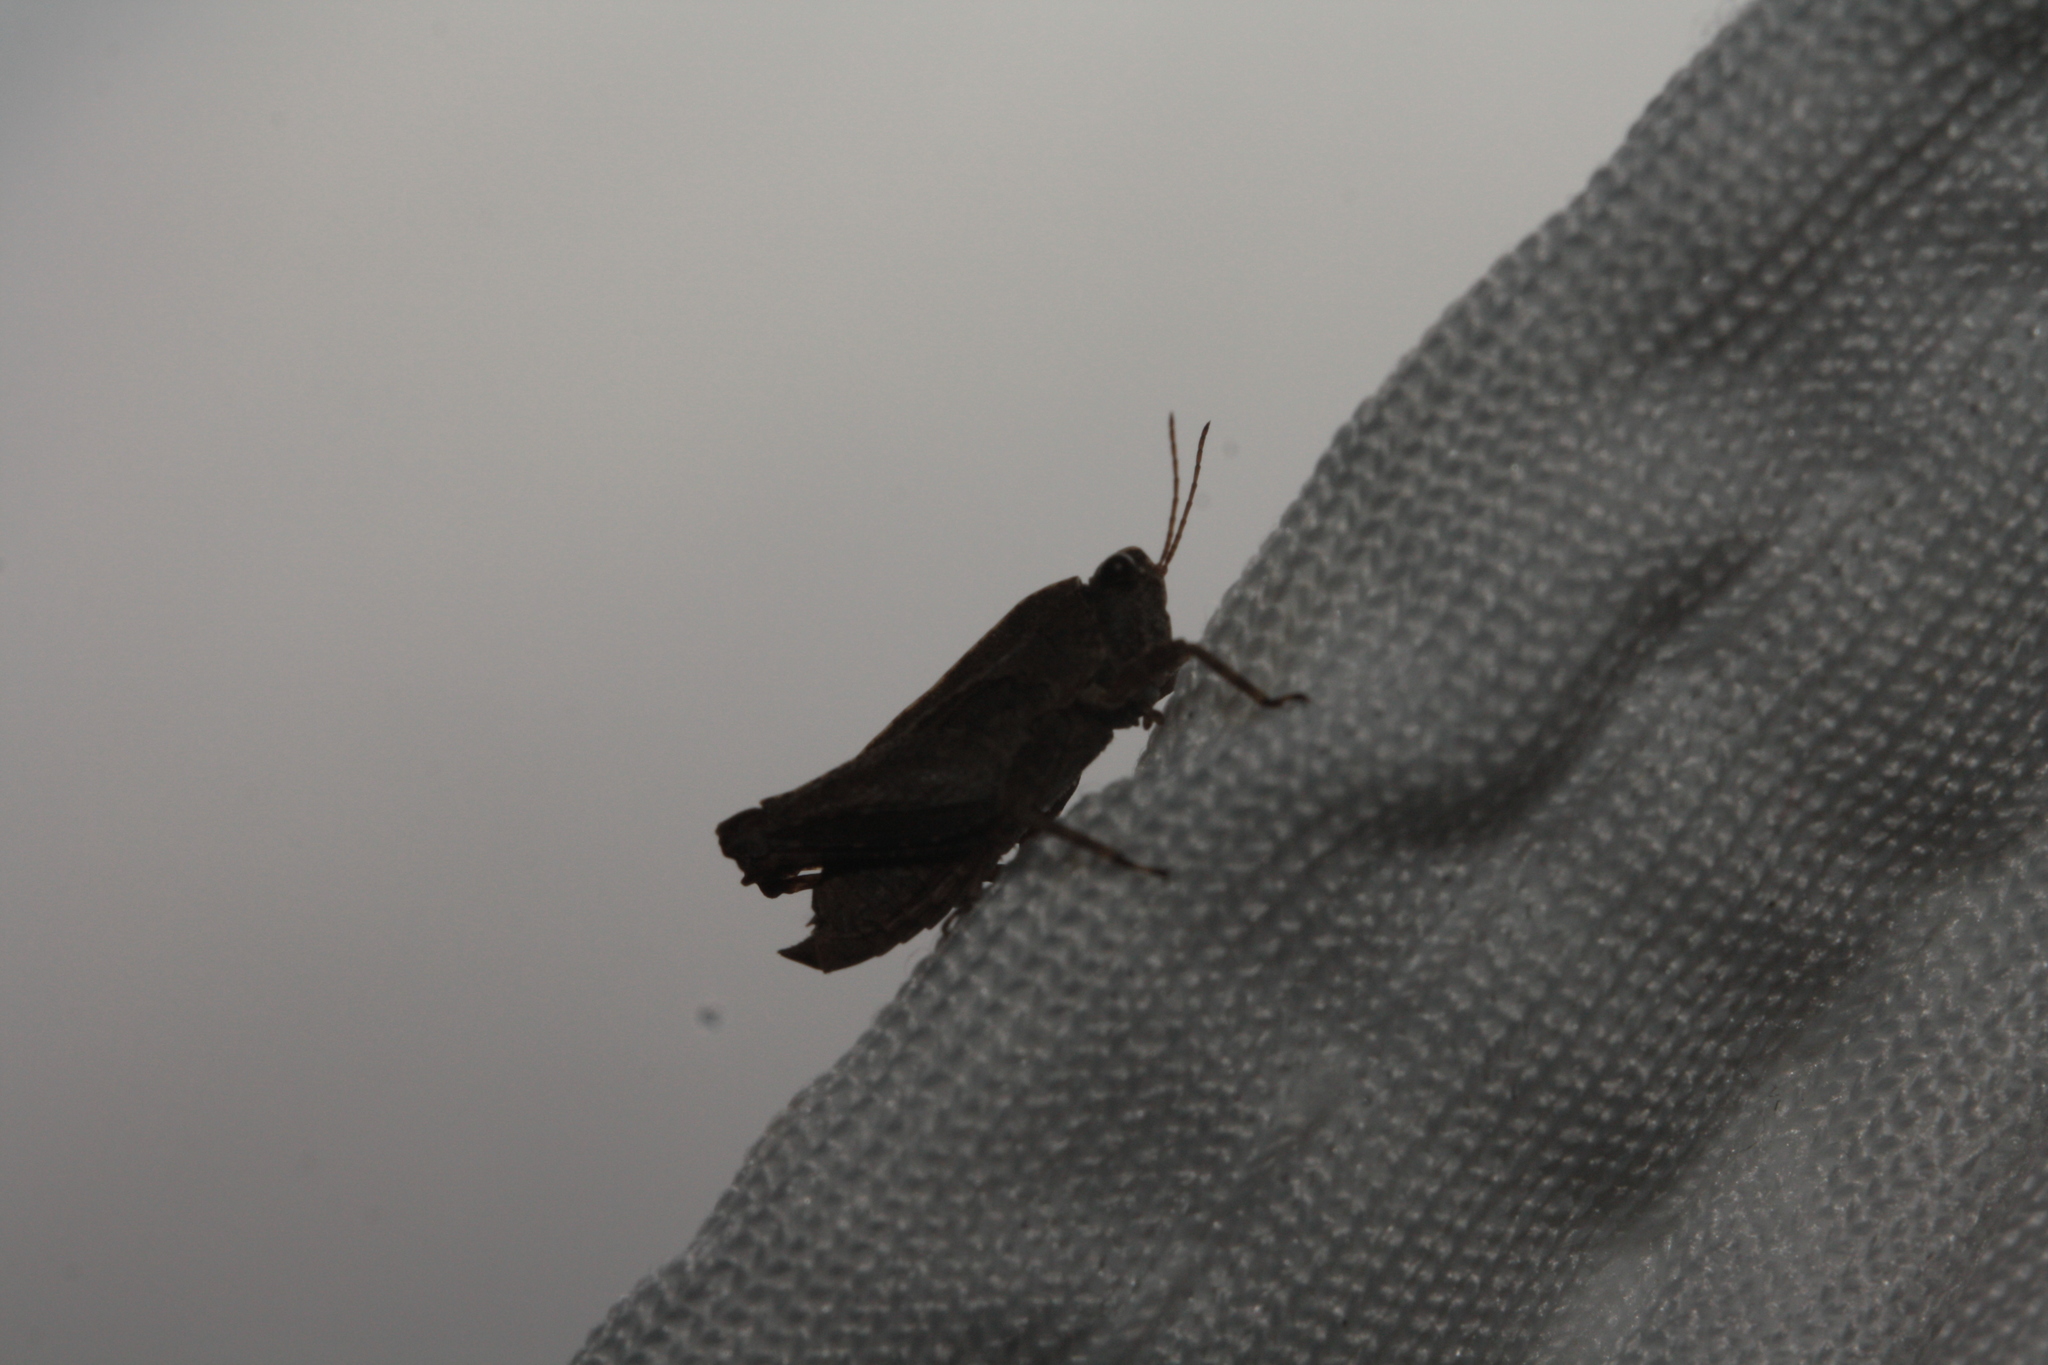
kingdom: Animalia
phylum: Arthropoda
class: Insecta
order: Orthoptera
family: Tetrigidae
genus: Tetrix
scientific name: Tetrix tenuicornis
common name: Long-horned groundhopper
